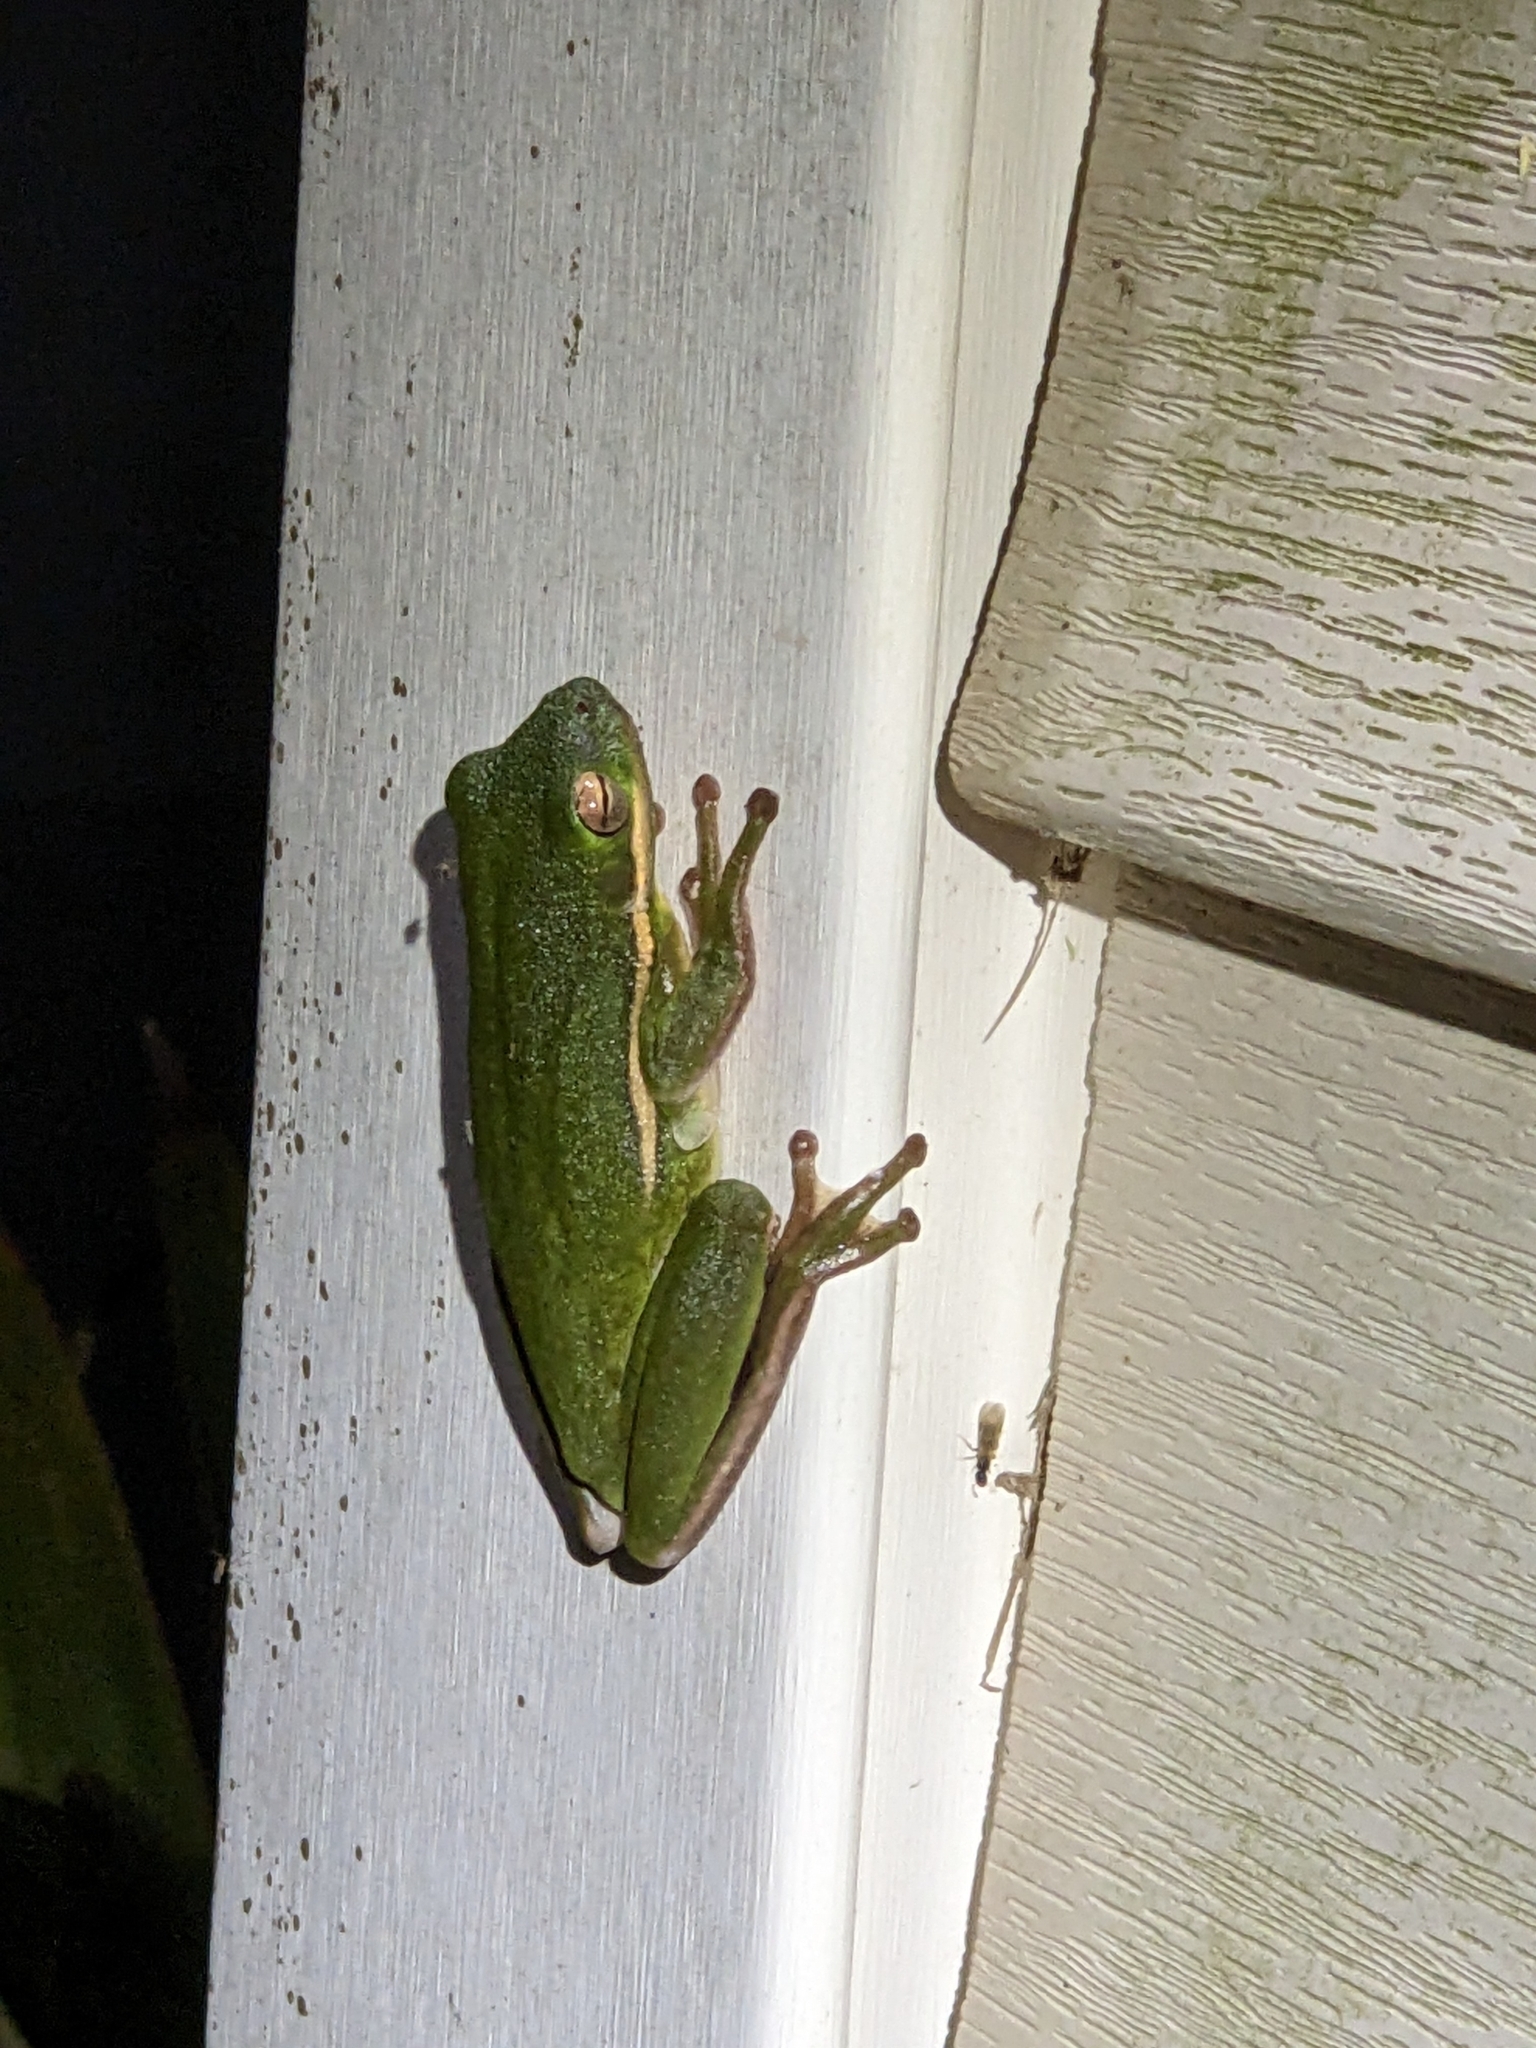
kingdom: Animalia
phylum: Chordata
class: Amphibia
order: Anura
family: Hylidae
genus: Dryophytes
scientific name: Dryophytes cinereus
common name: Green treefrog
